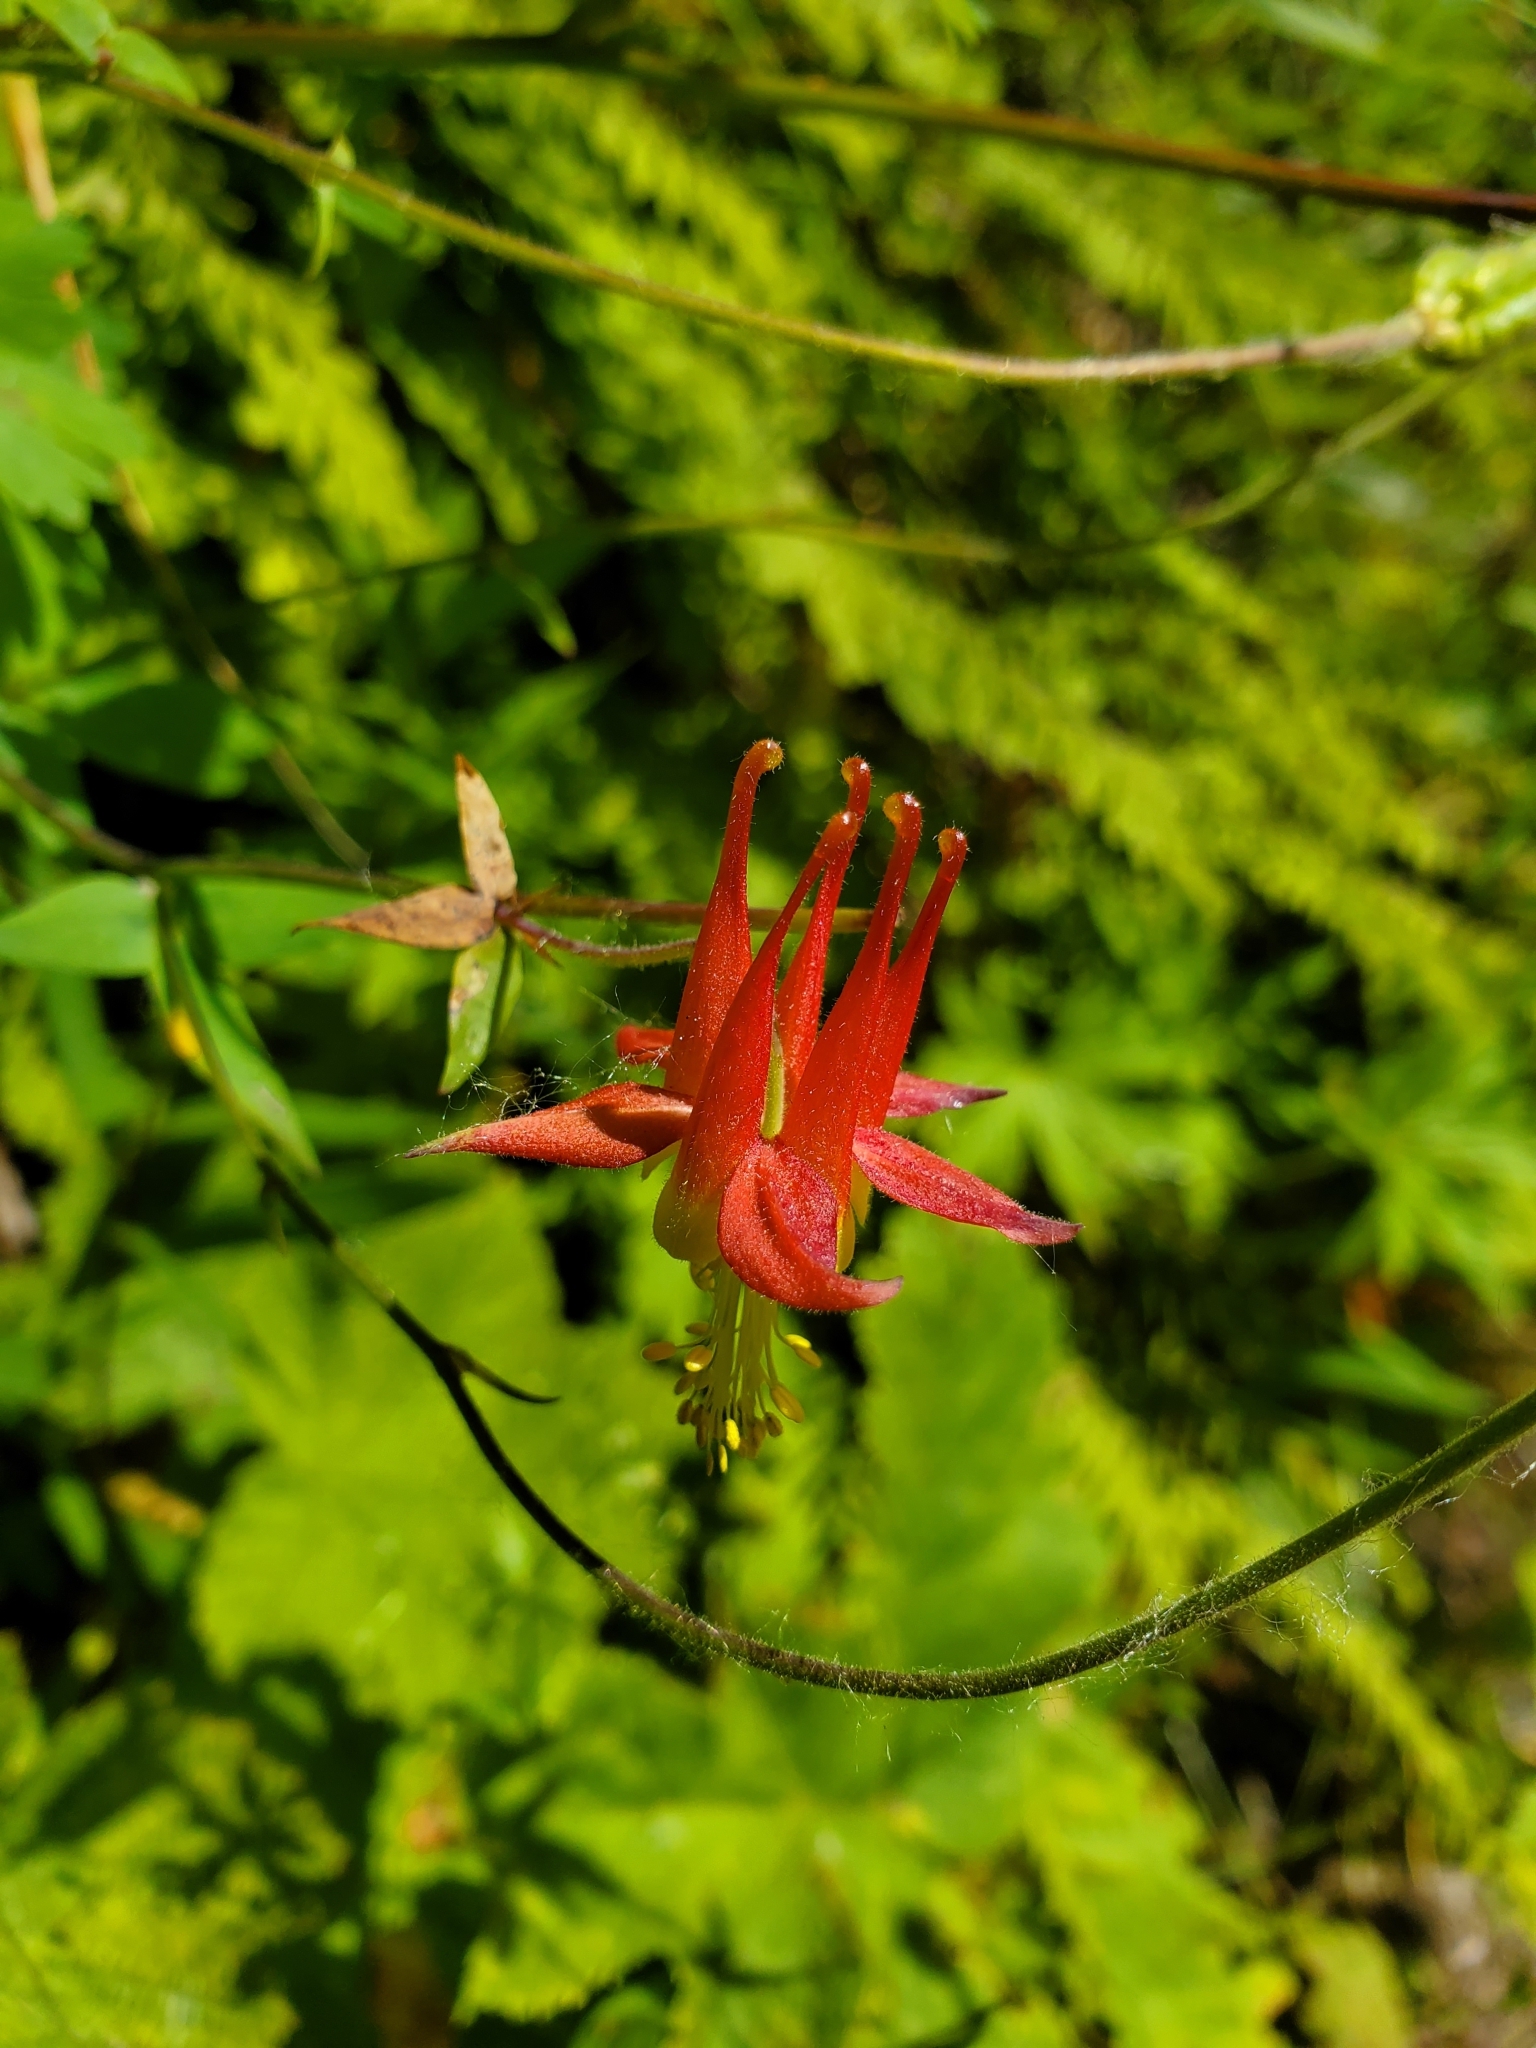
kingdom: Plantae
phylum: Tracheophyta
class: Magnoliopsida
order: Ranunculales
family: Ranunculaceae
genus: Aquilegia
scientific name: Aquilegia formosa
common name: Sitka columbine
